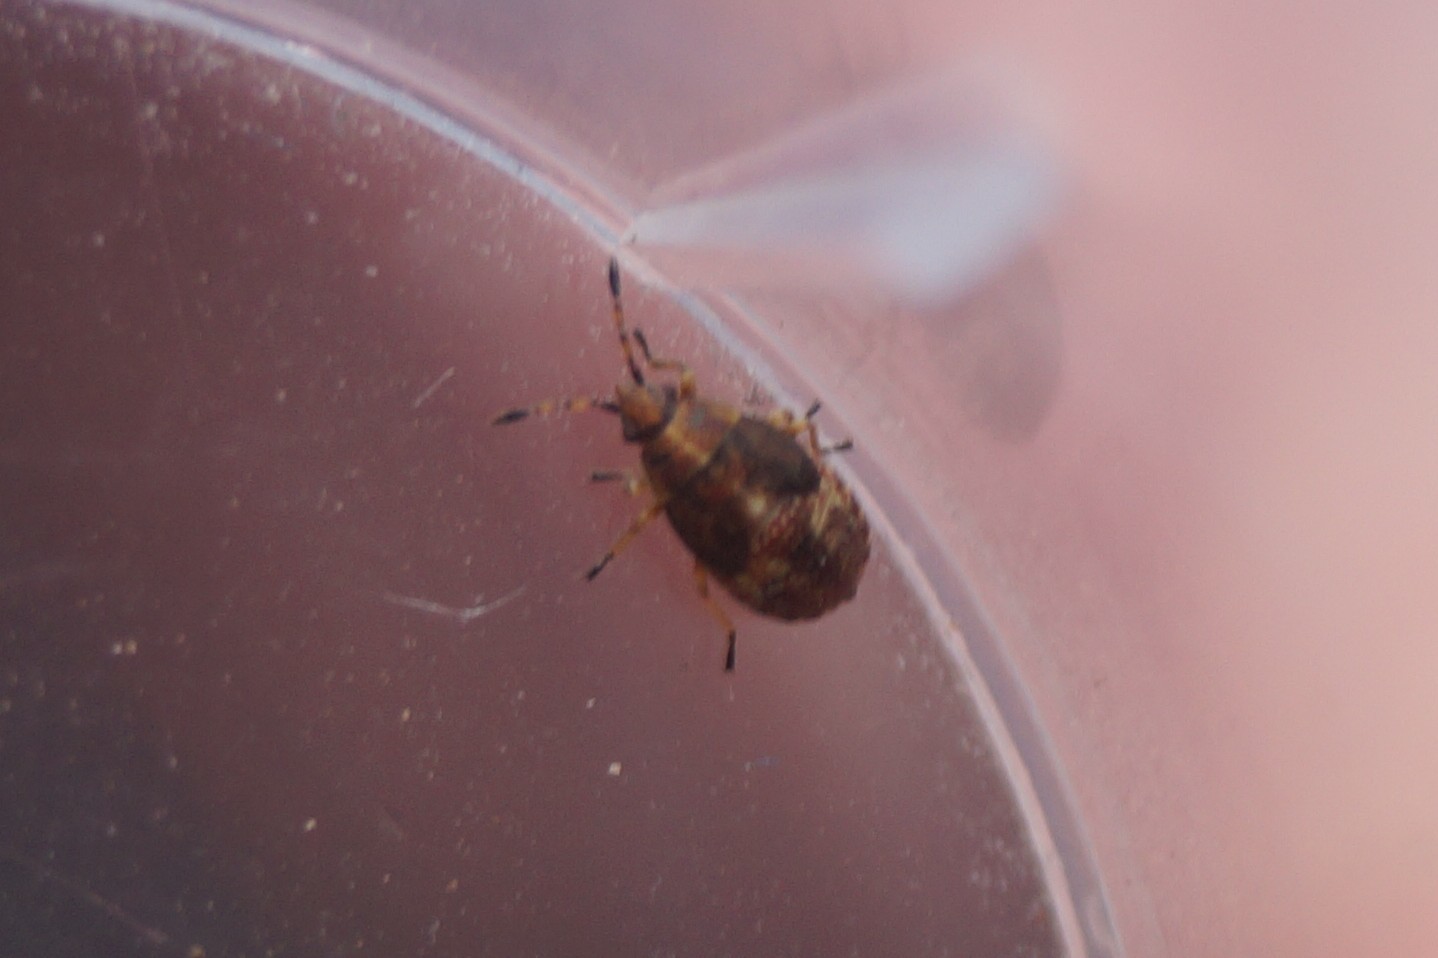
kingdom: Animalia
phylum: Arthropoda
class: Insecta
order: Hemiptera
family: Lygaeidae
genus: Kleidocerys
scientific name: Kleidocerys resedae
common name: Birch catkin bug
